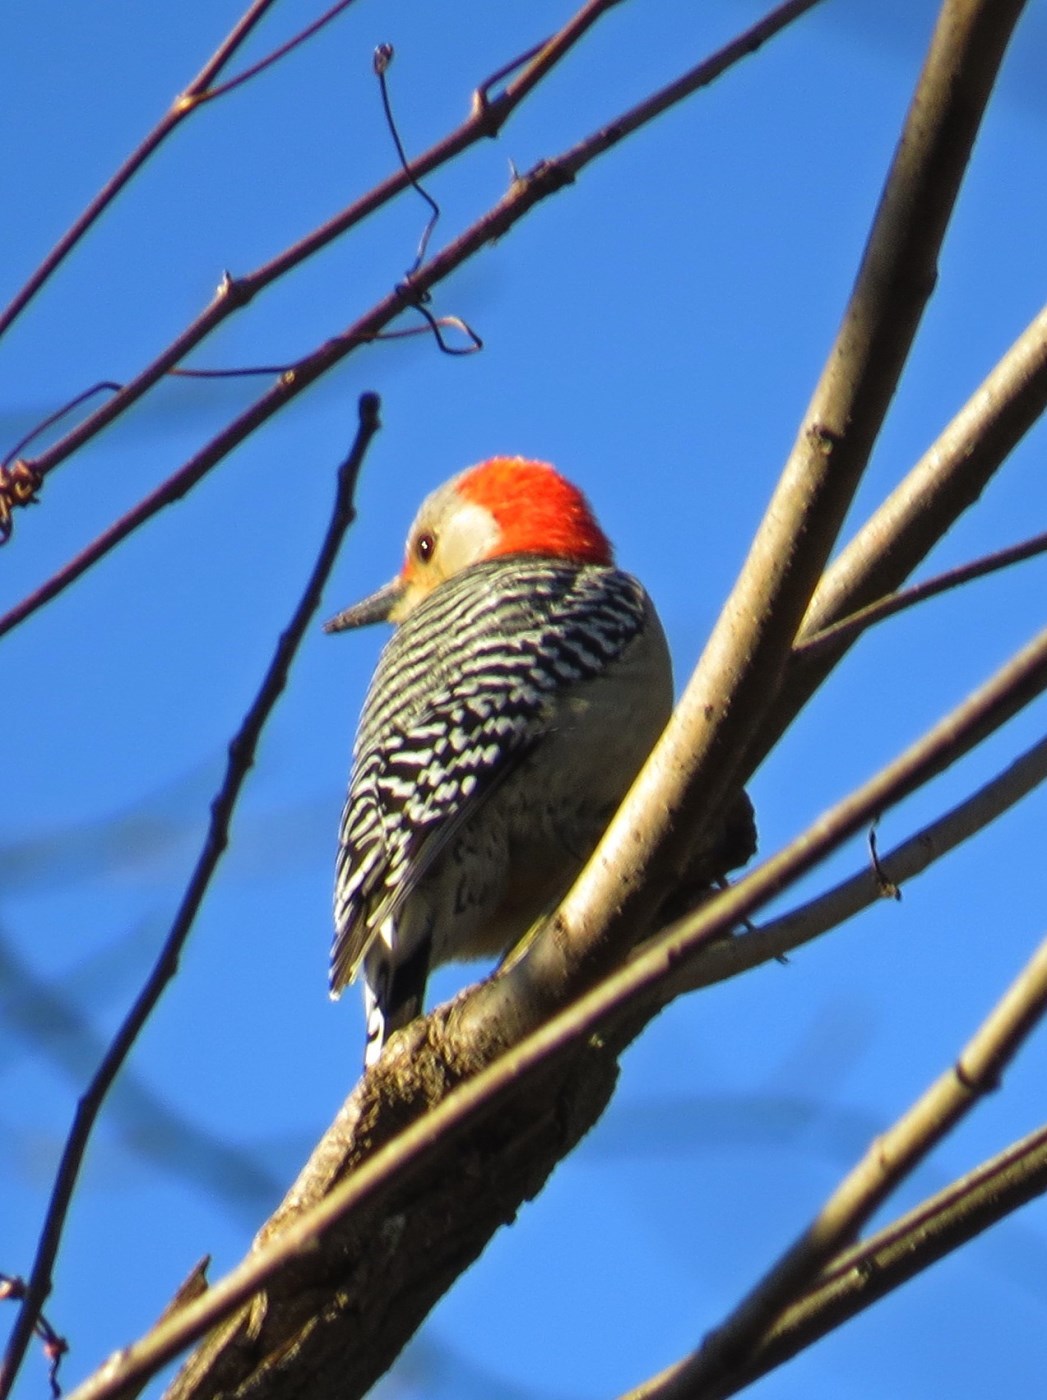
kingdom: Animalia
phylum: Chordata
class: Aves
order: Piciformes
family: Picidae
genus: Melanerpes
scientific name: Melanerpes carolinus
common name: Red-bellied woodpecker
